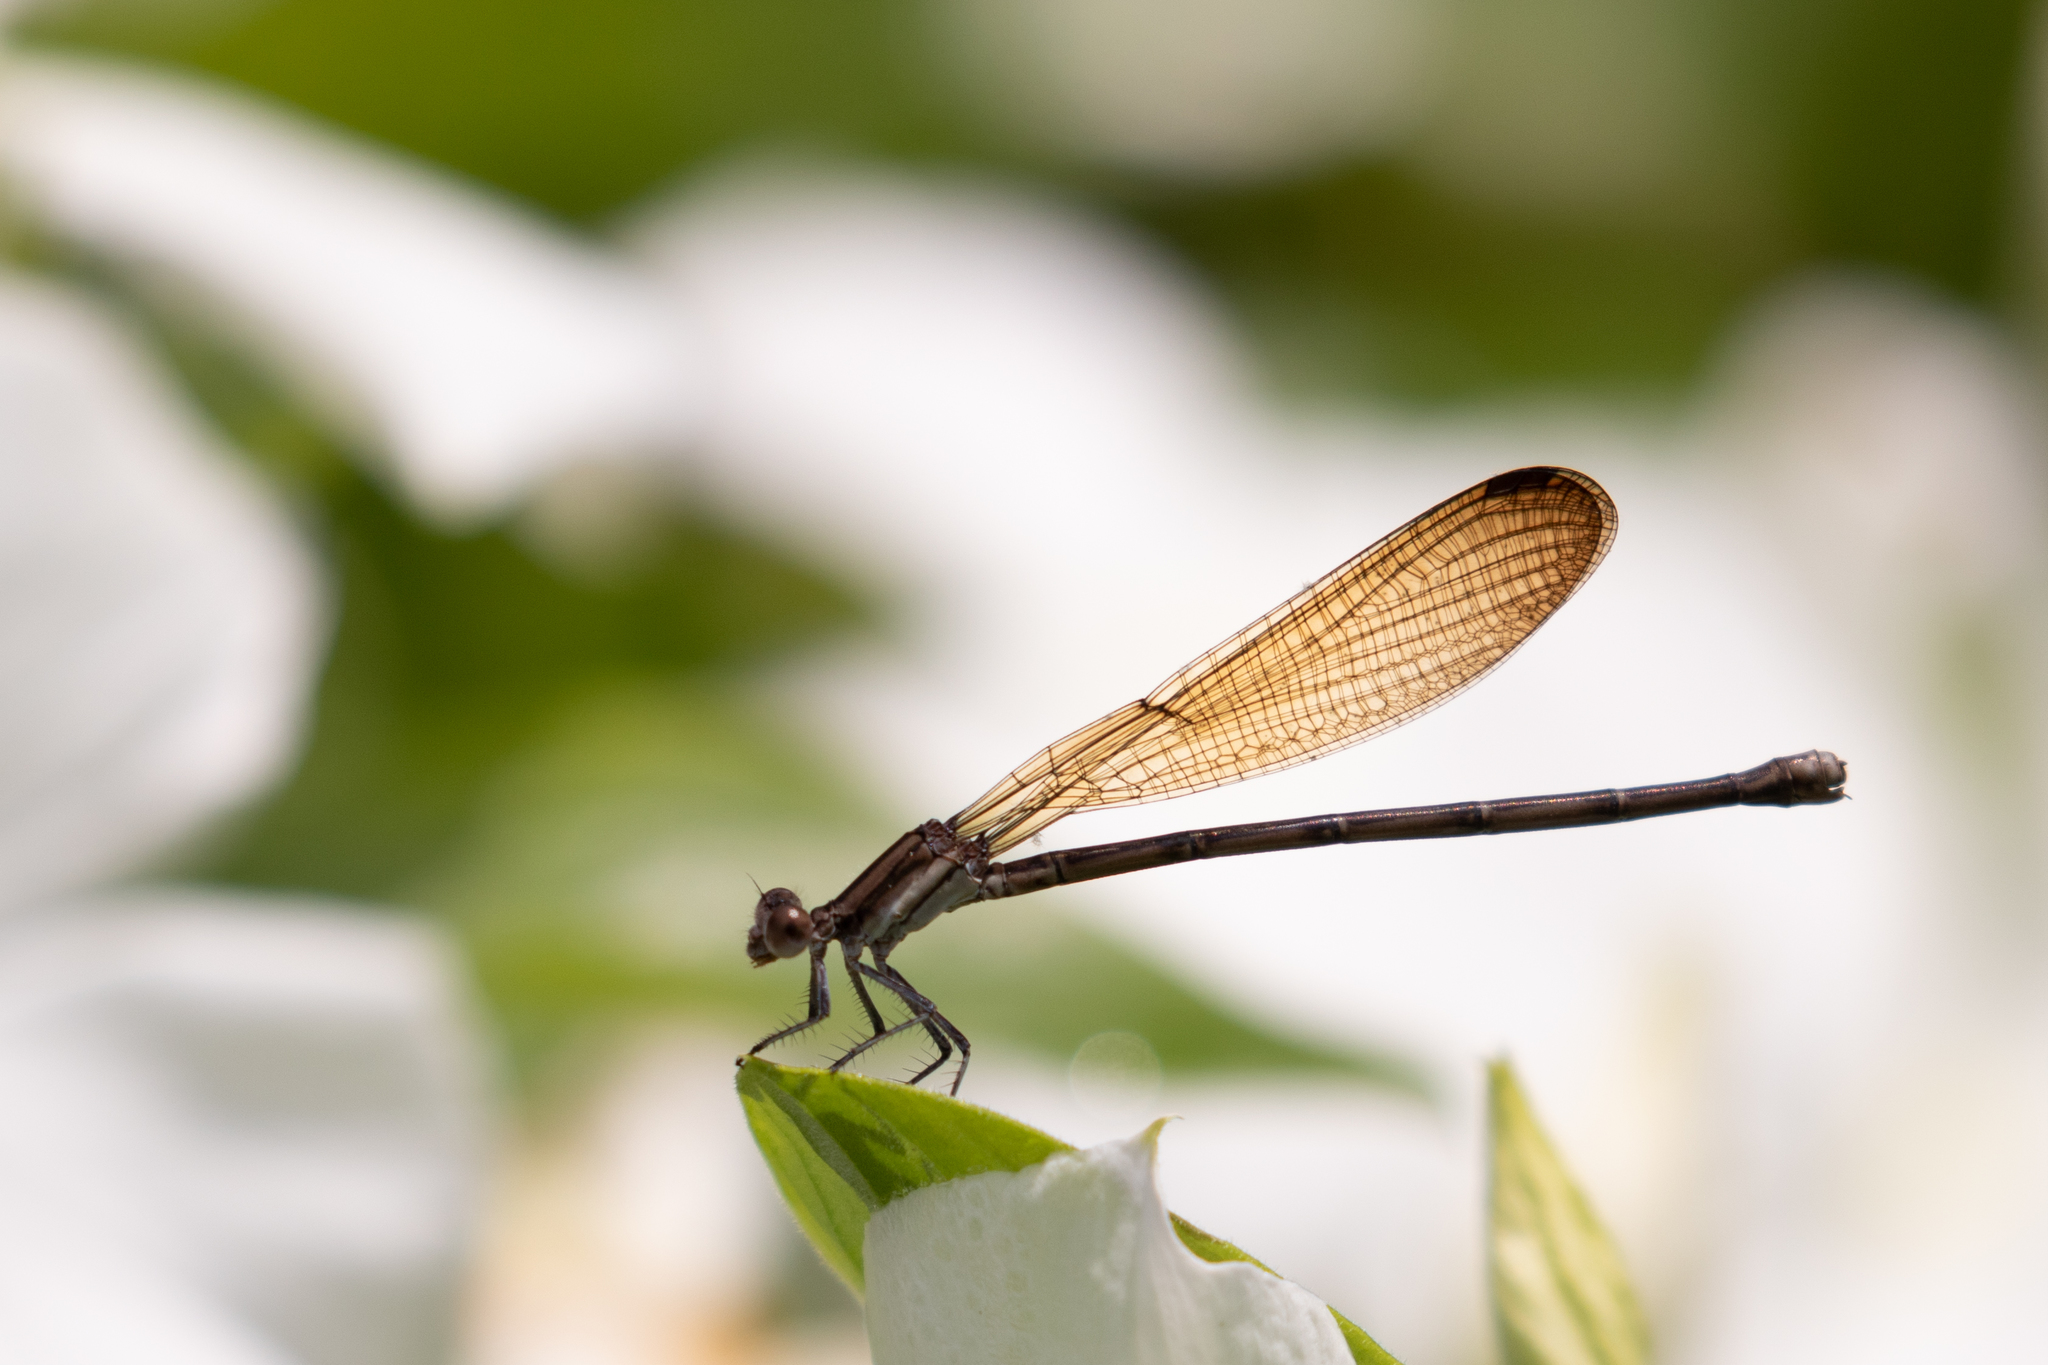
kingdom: Animalia
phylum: Arthropoda
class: Insecta
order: Odonata
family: Coenagrionidae
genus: Argia
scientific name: Argia fumipennis
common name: Variable dancer
